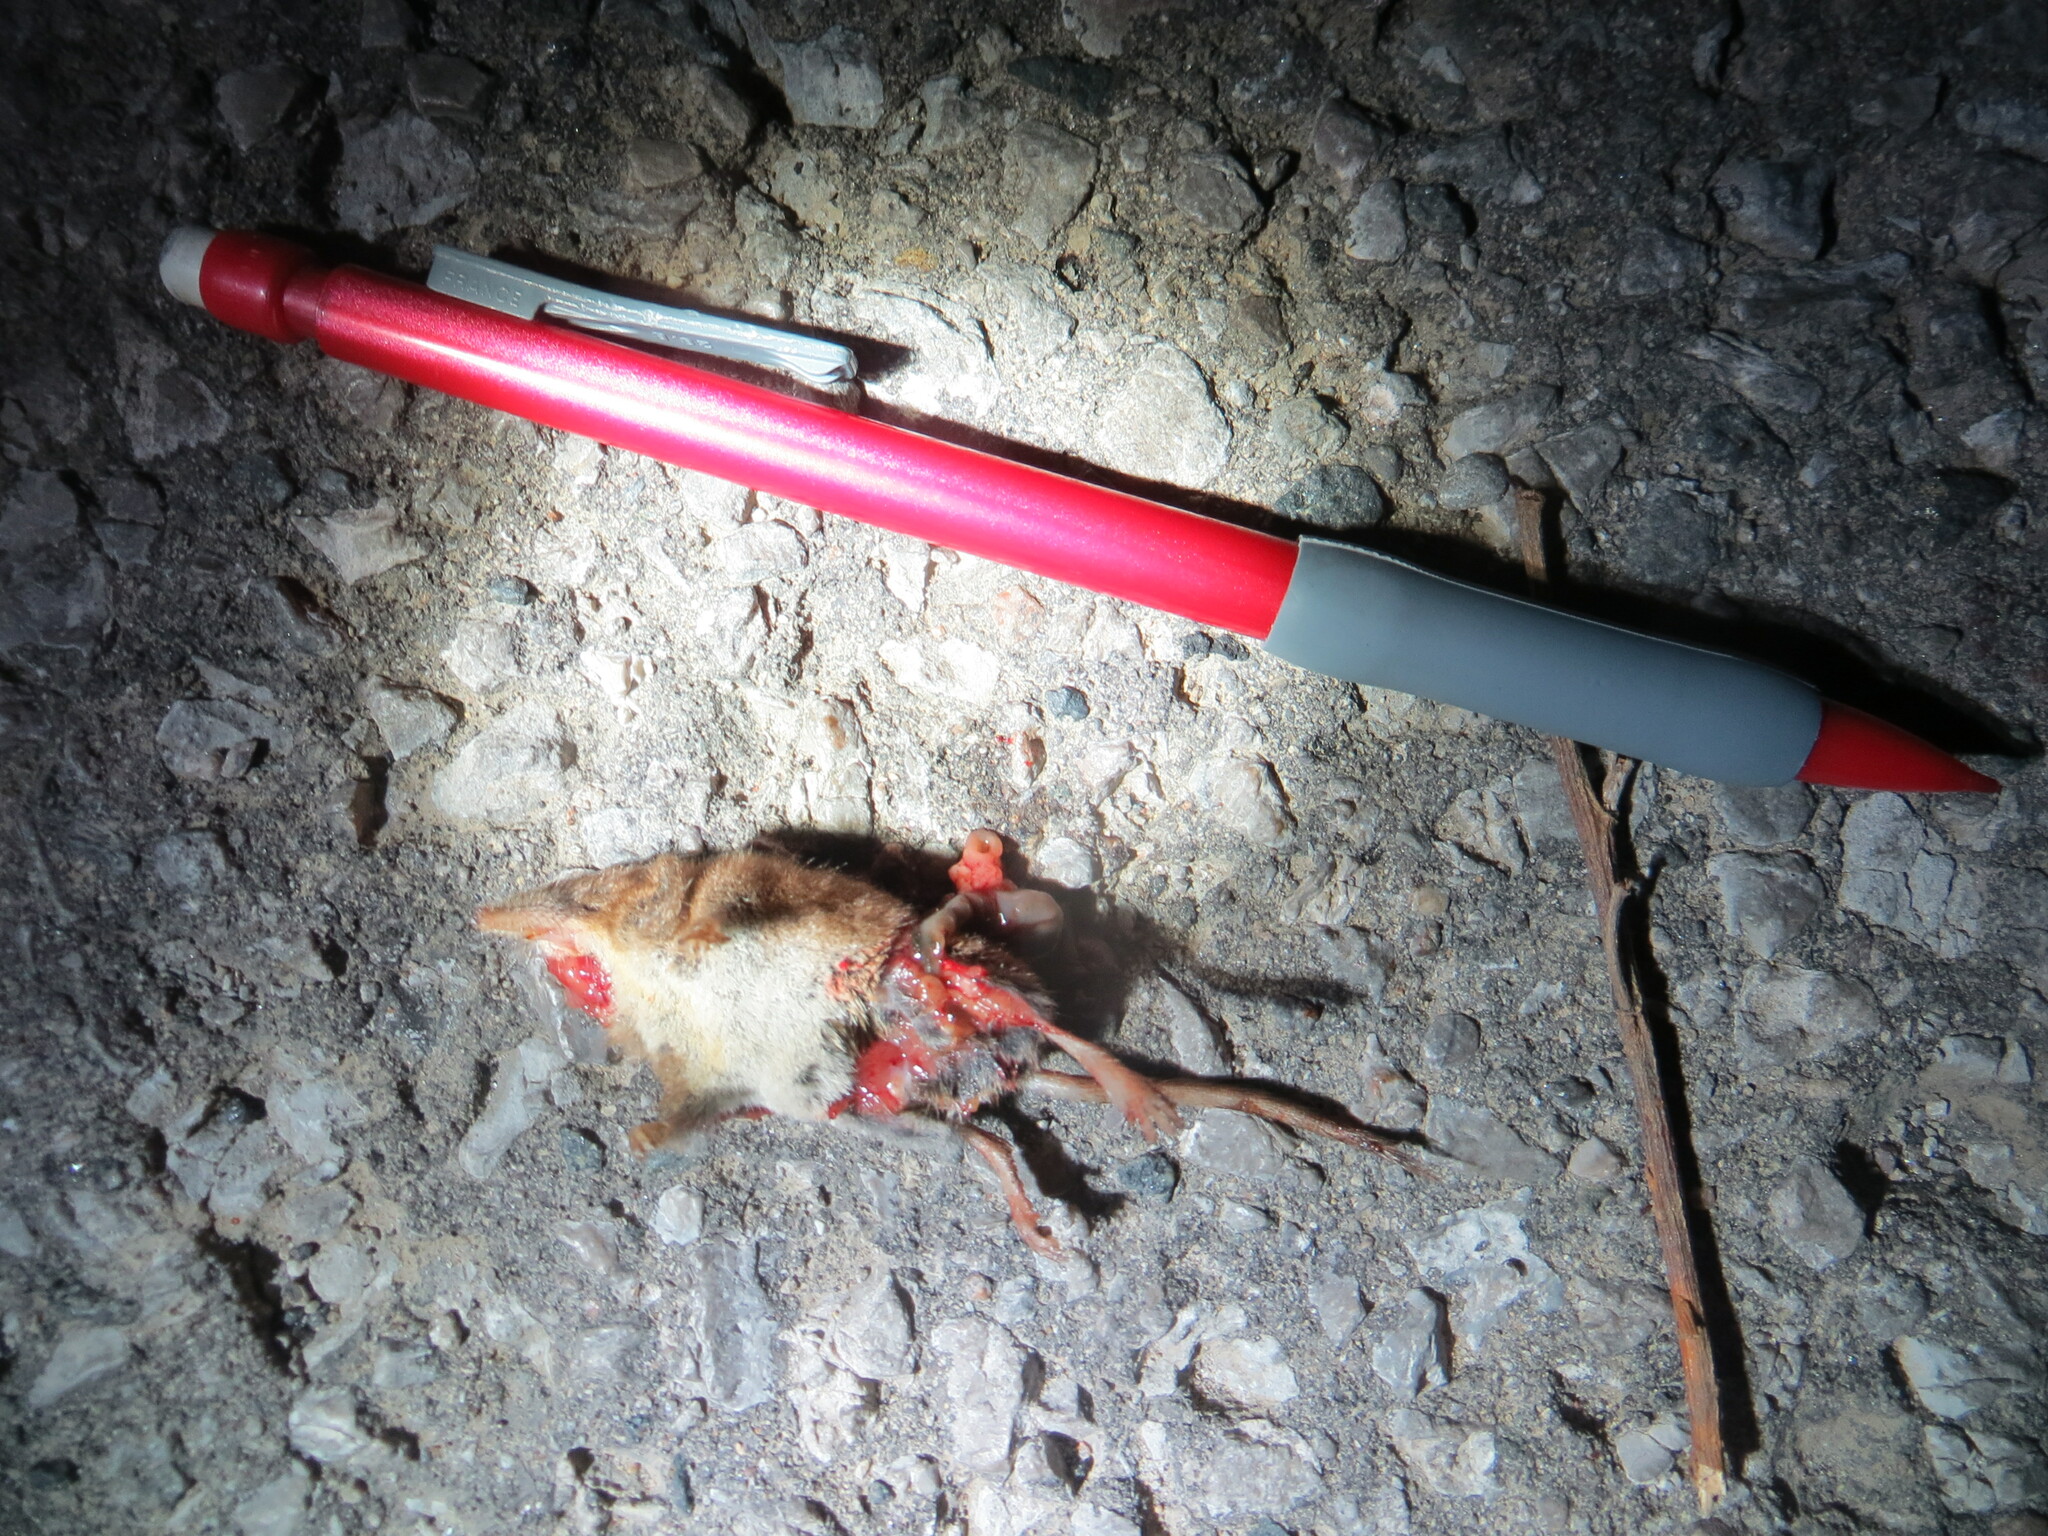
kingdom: Animalia
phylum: Chordata
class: Mammalia
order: Soricomorpha
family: Soricidae
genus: Sorex
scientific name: Sorex cinereus
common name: Cinereus shrew
